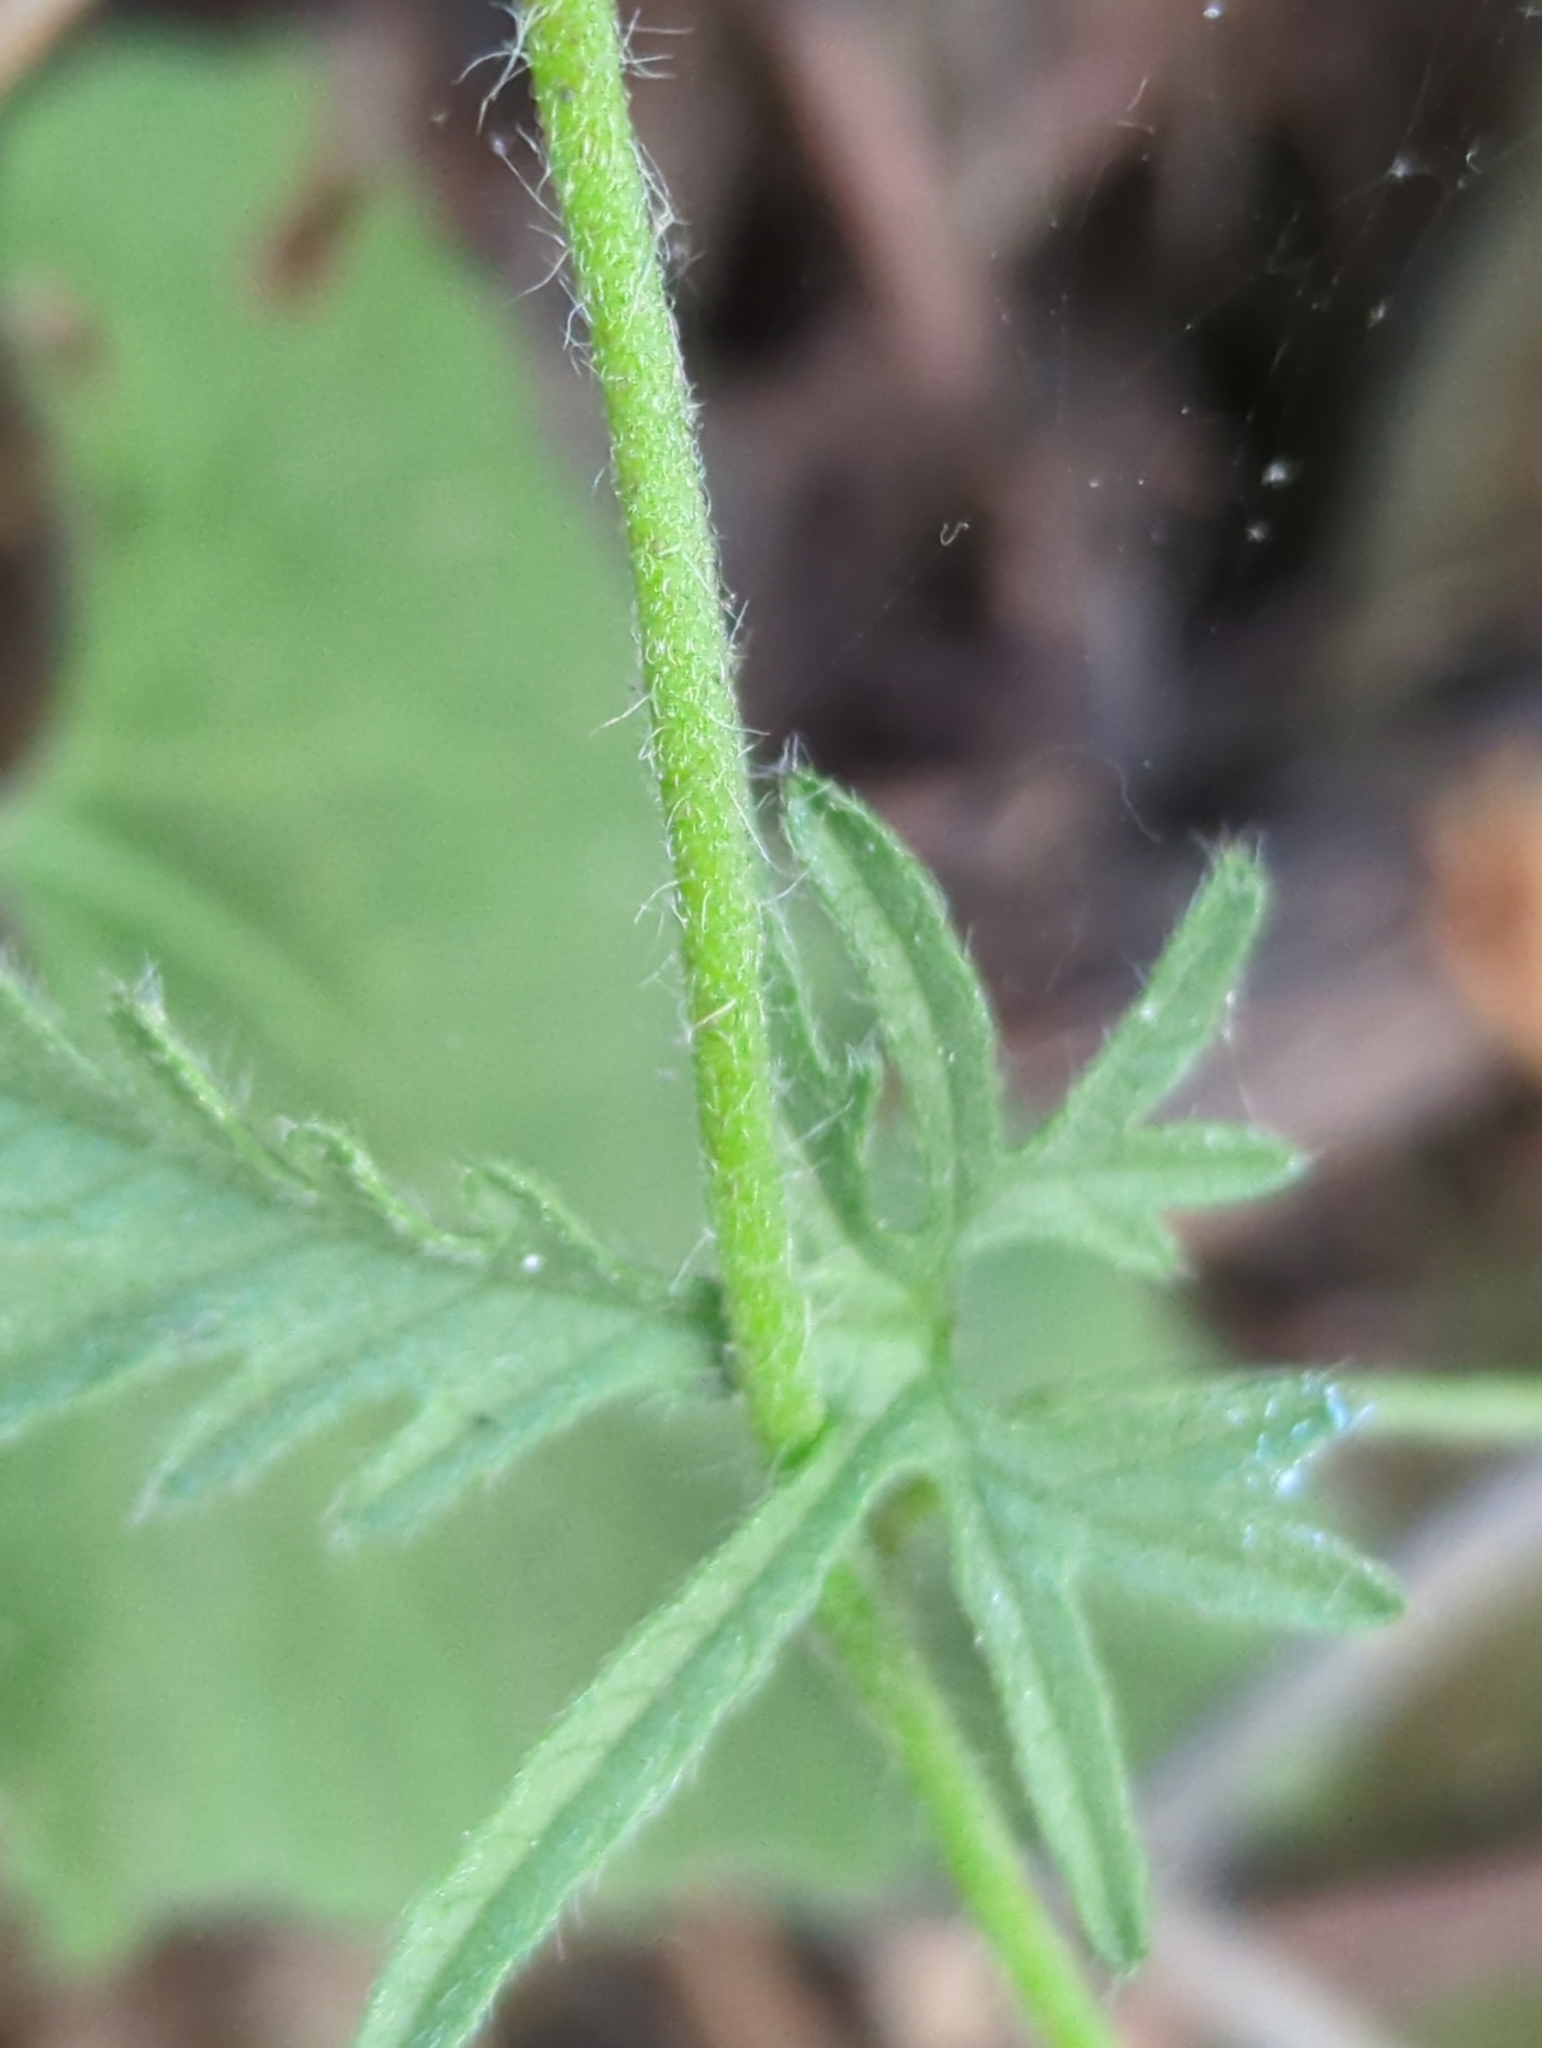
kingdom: Plantae
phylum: Tracheophyta
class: Magnoliopsida
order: Solanales
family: Convolvulaceae
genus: Convolvulus
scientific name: Convolvulus althaeoides
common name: Mallow bindweed
